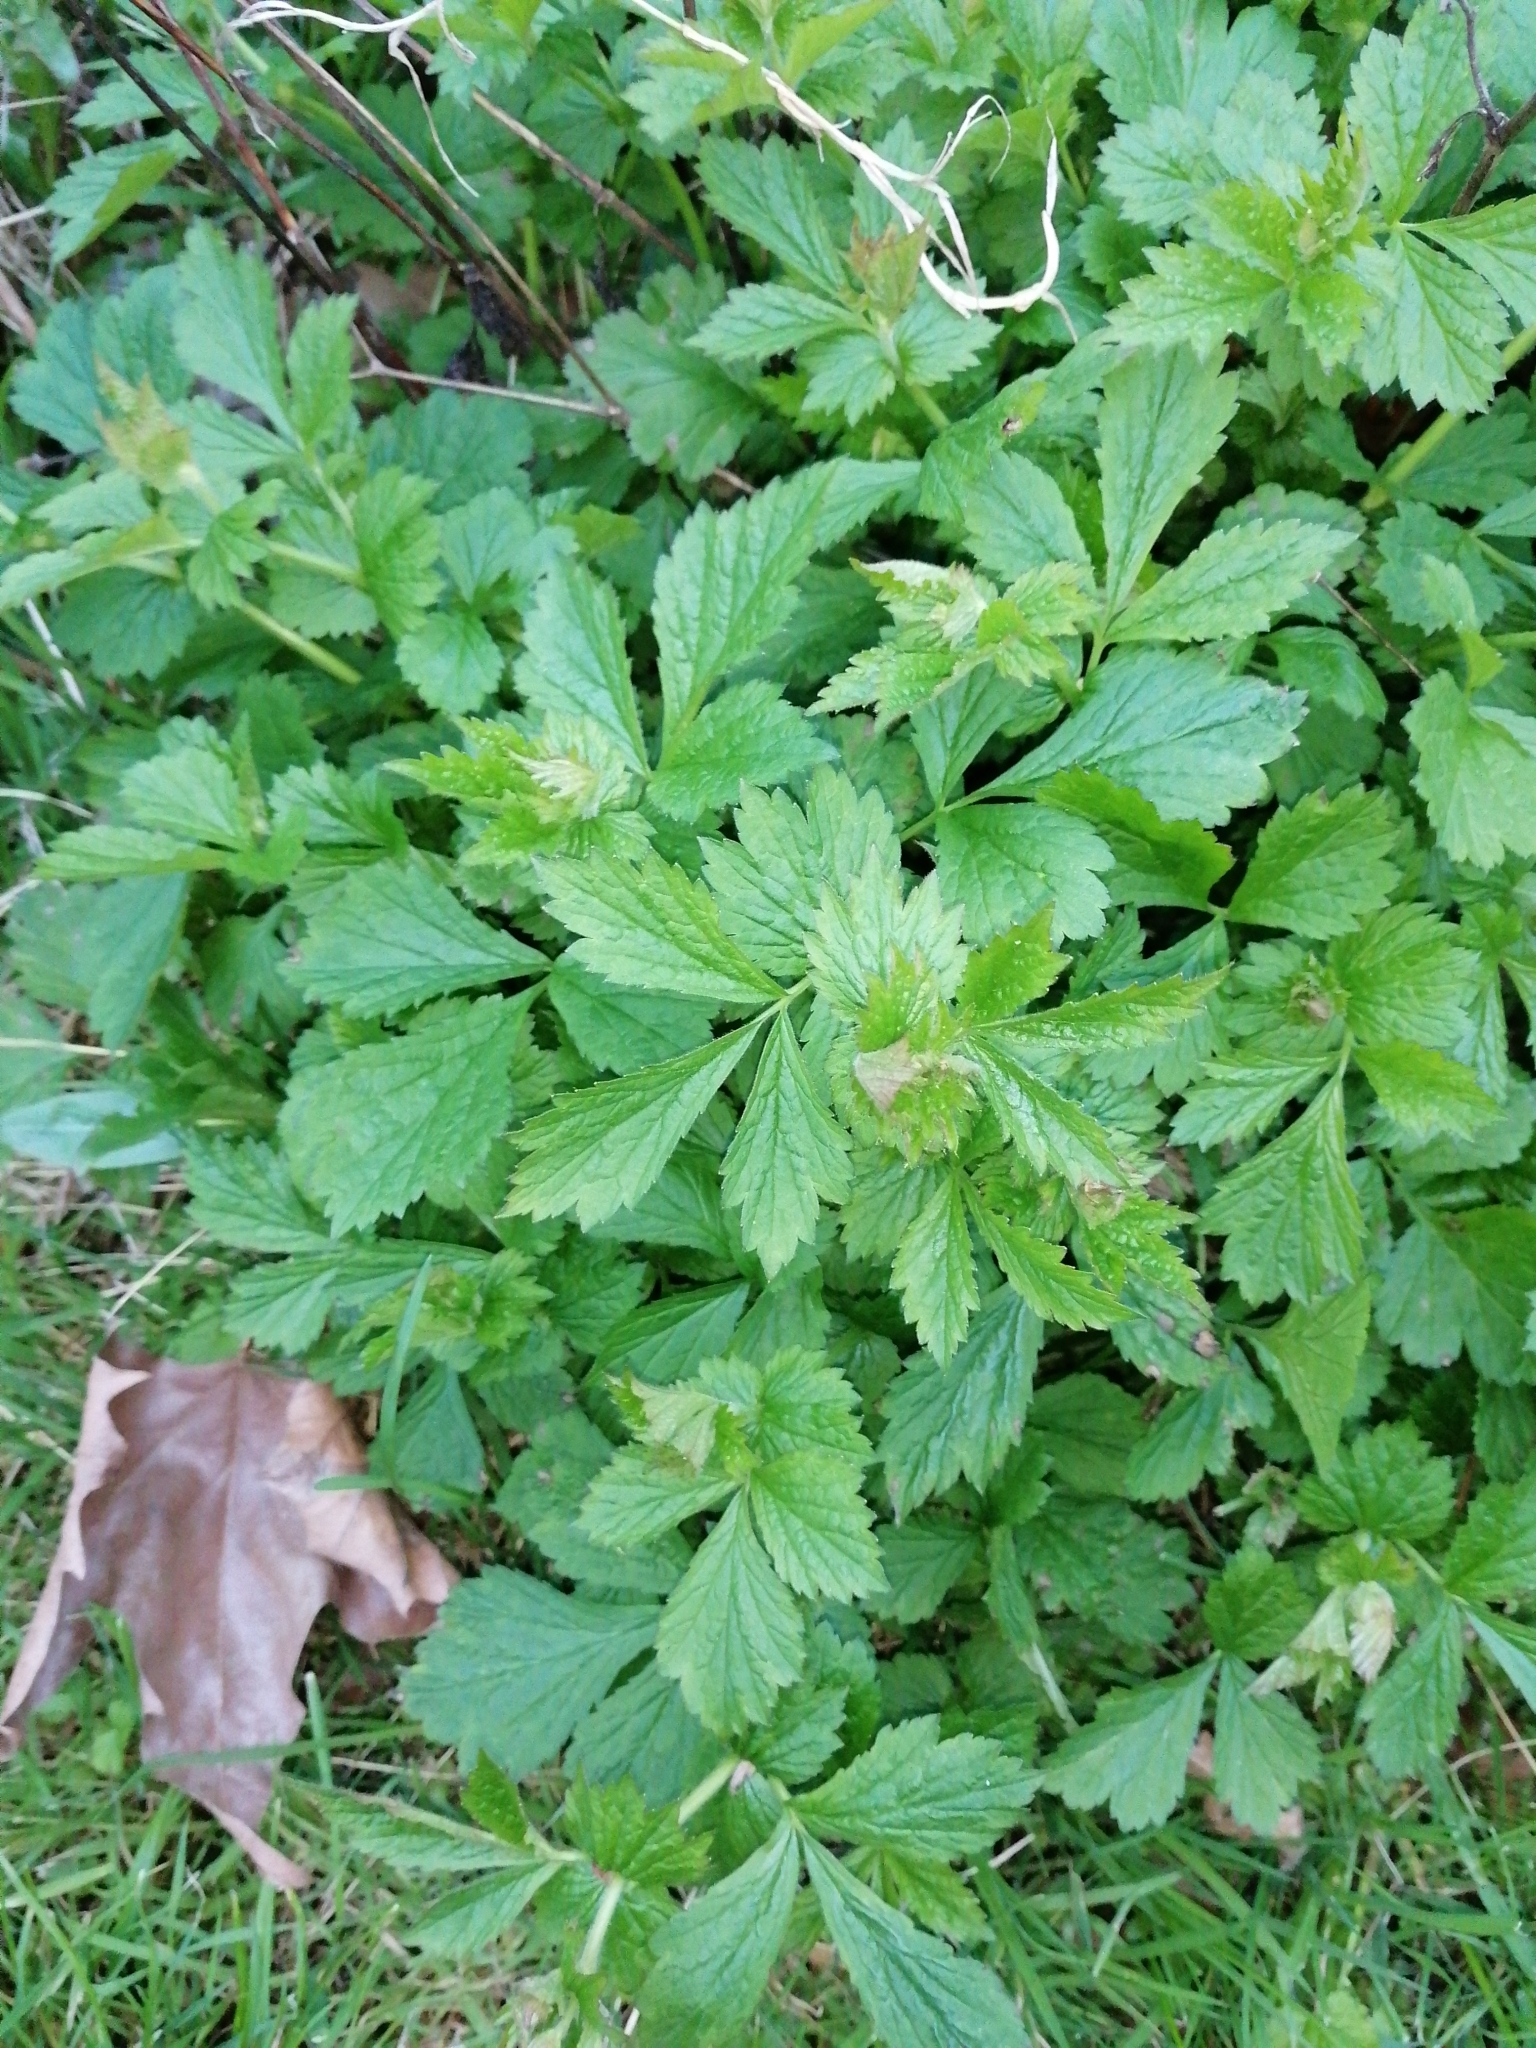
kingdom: Plantae
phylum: Tracheophyta
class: Magnoliopsida
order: Rosales
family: Rosaceae
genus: Geum
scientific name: Geum urbanum
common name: Wood avens
